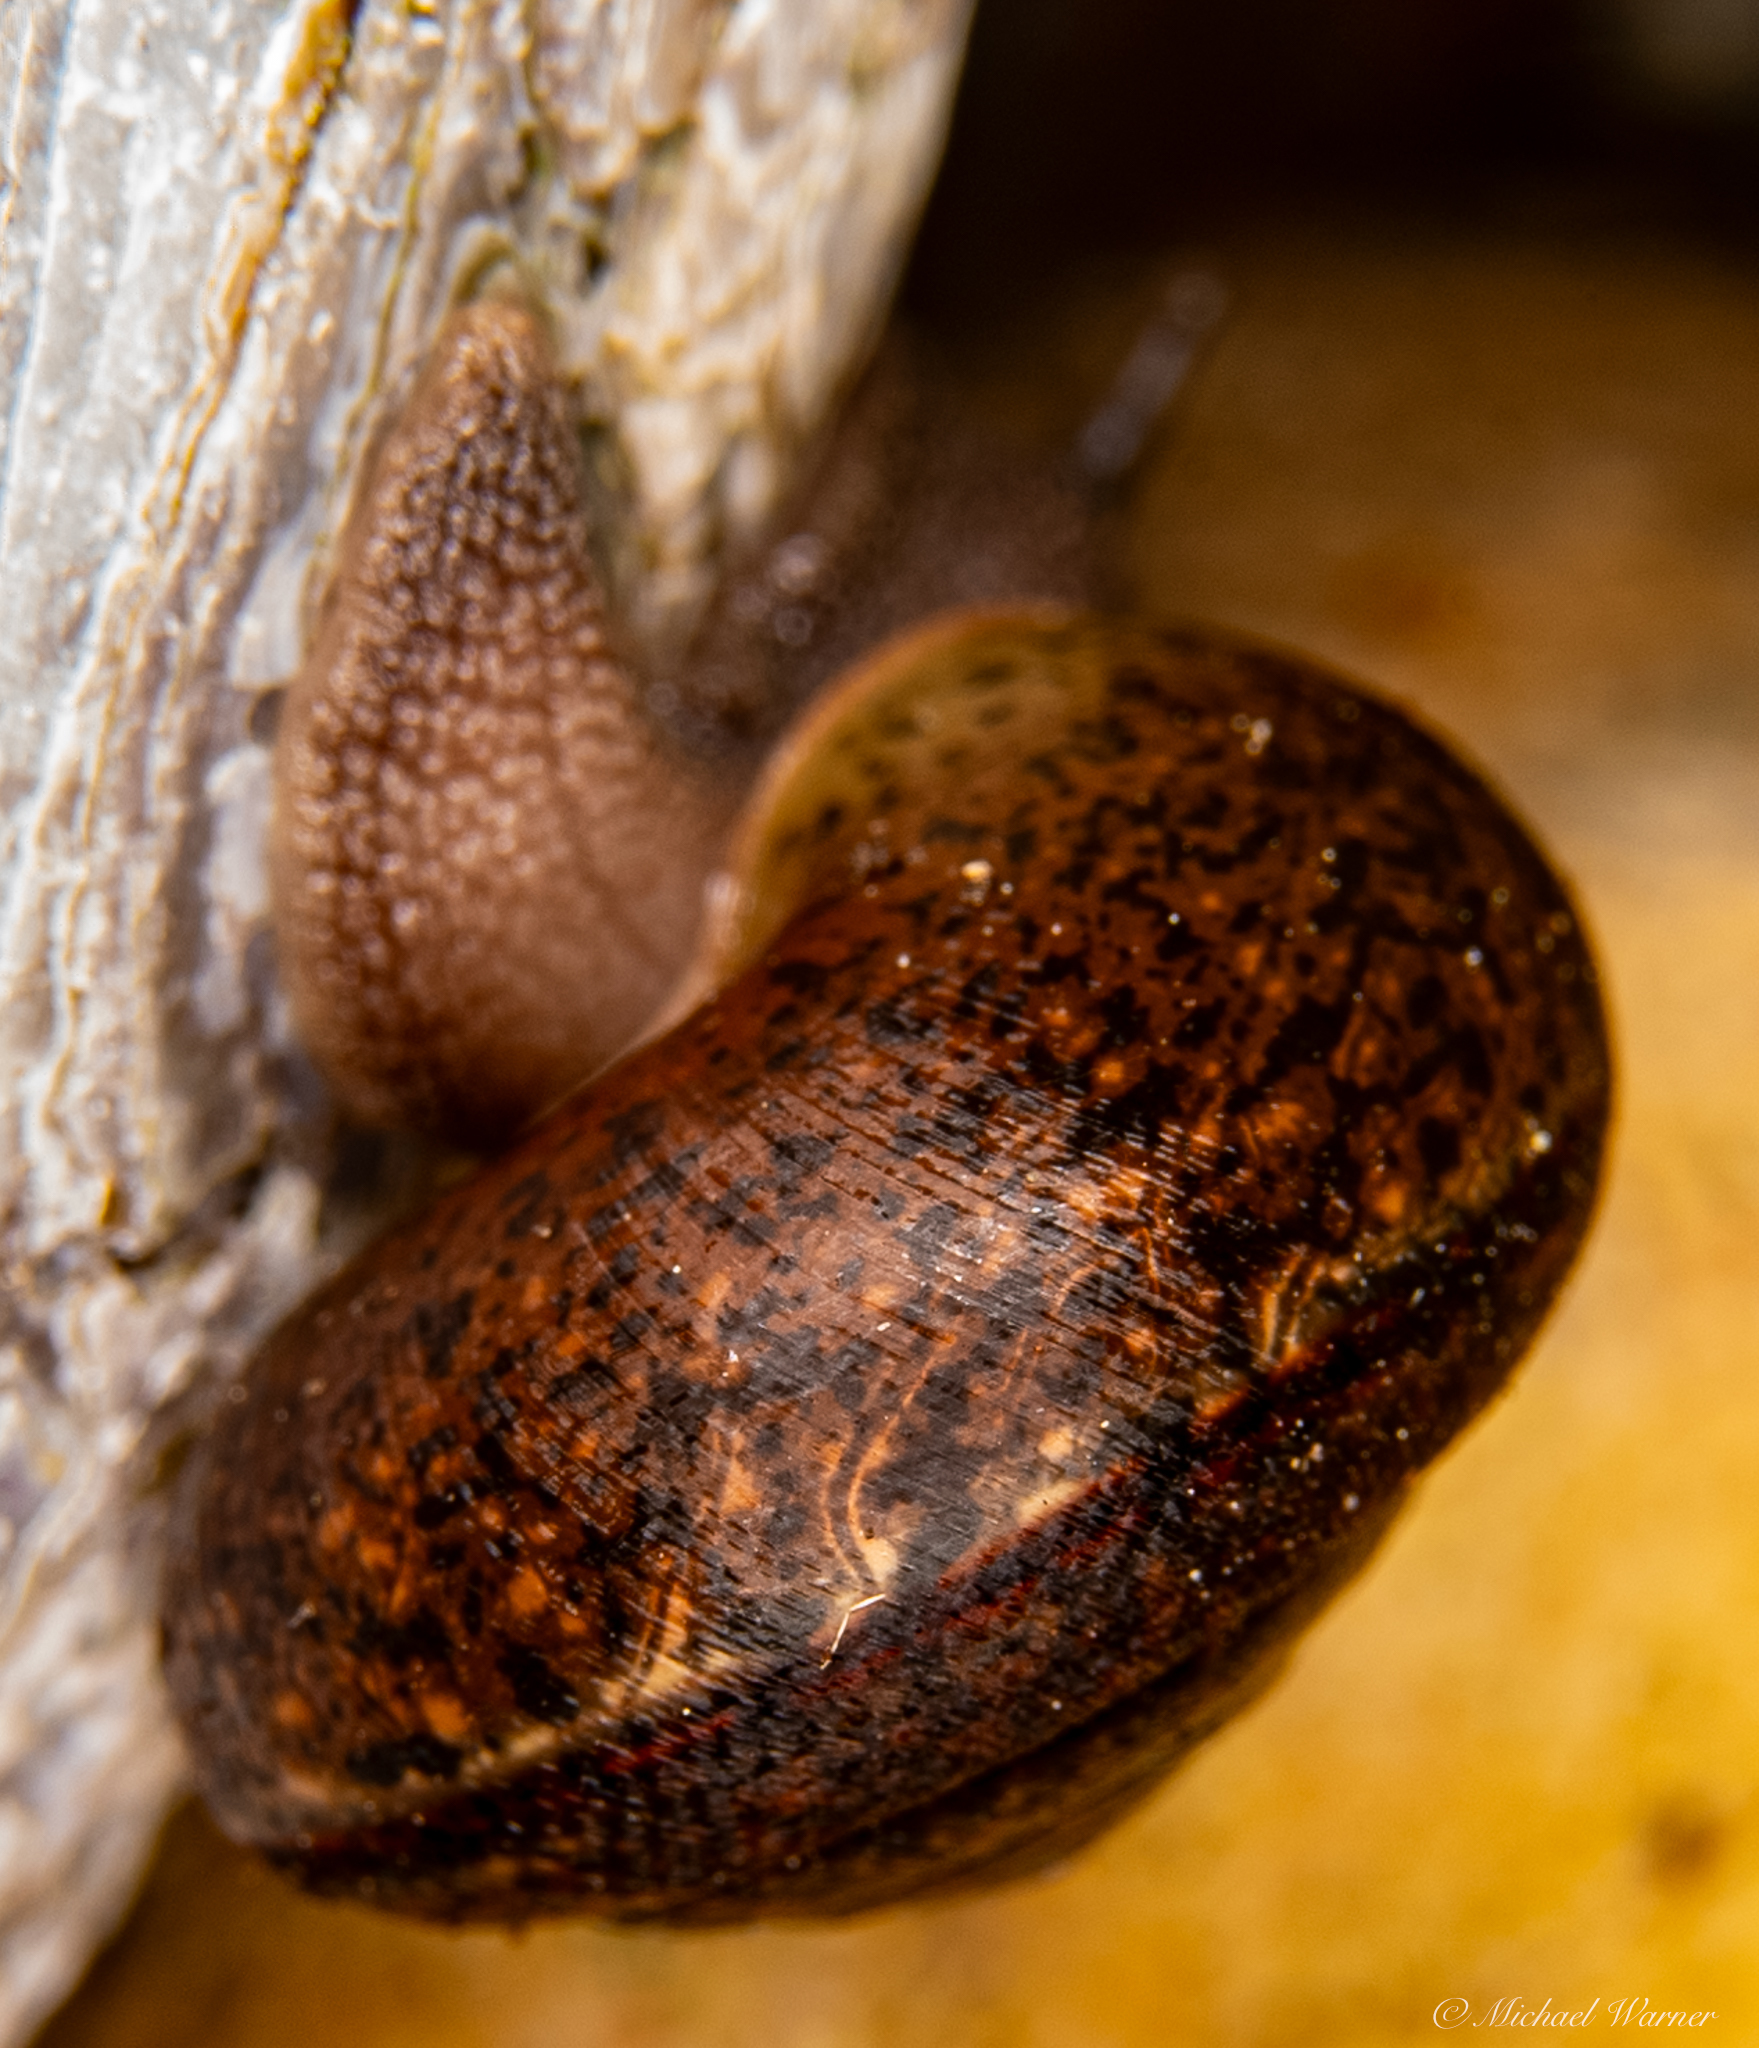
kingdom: Animalia
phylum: Mollusca
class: Gastropoda
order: Stylommatophora
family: Xanthonychidae
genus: Helminthoglypta
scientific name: Helminthoglypta diabloensis
